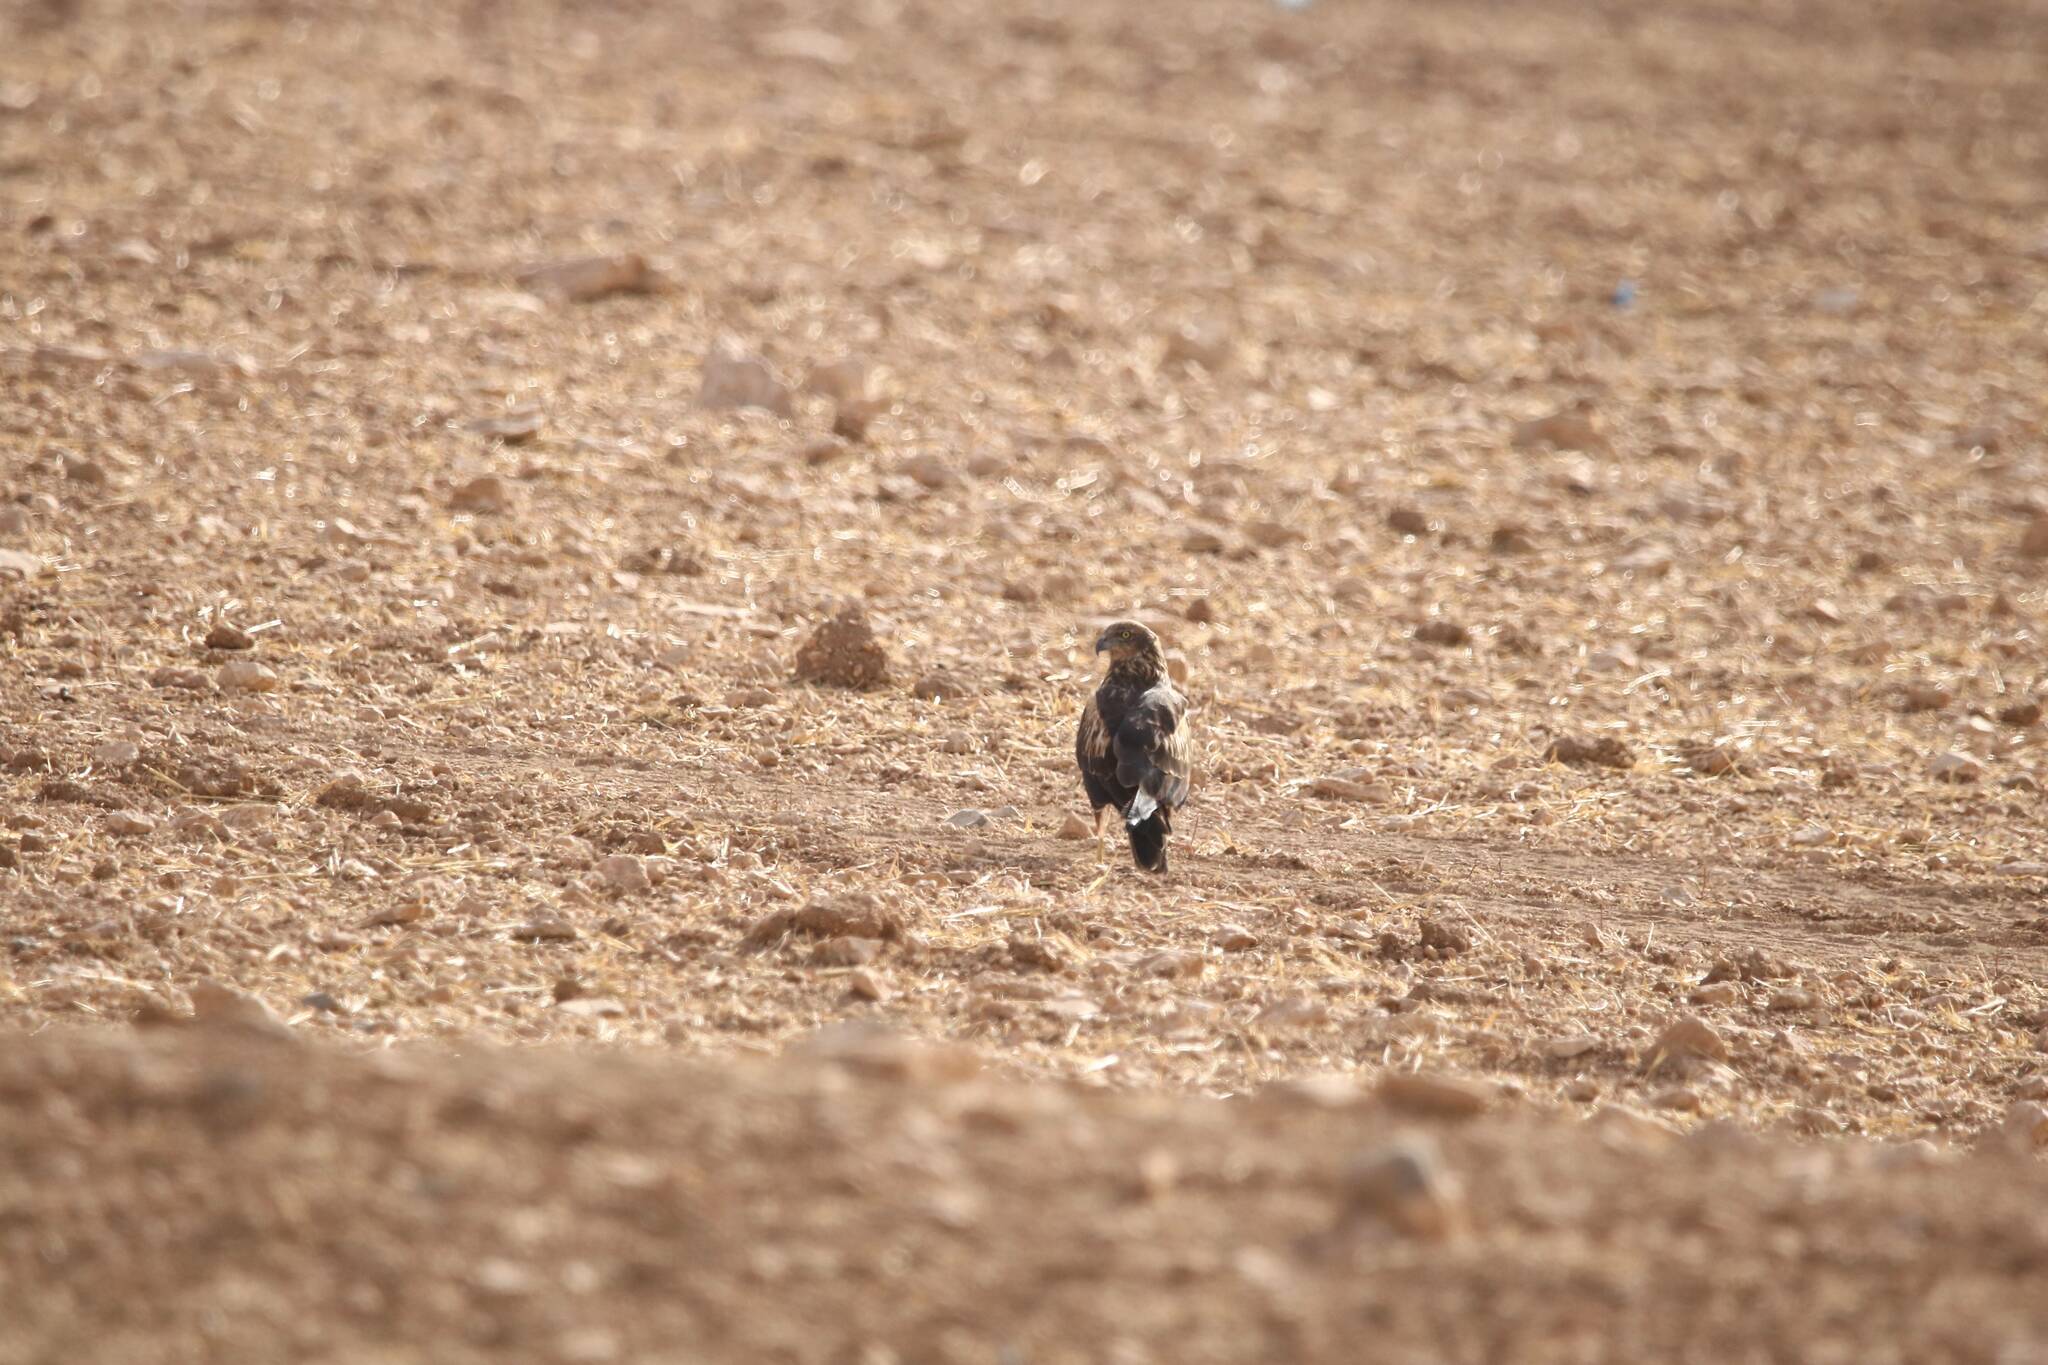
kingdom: Animalia
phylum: Chordata
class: Aves
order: Accipitriformes
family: Accipitridae
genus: Circus
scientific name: Circus aeruginosus
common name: Western marsh harrier
